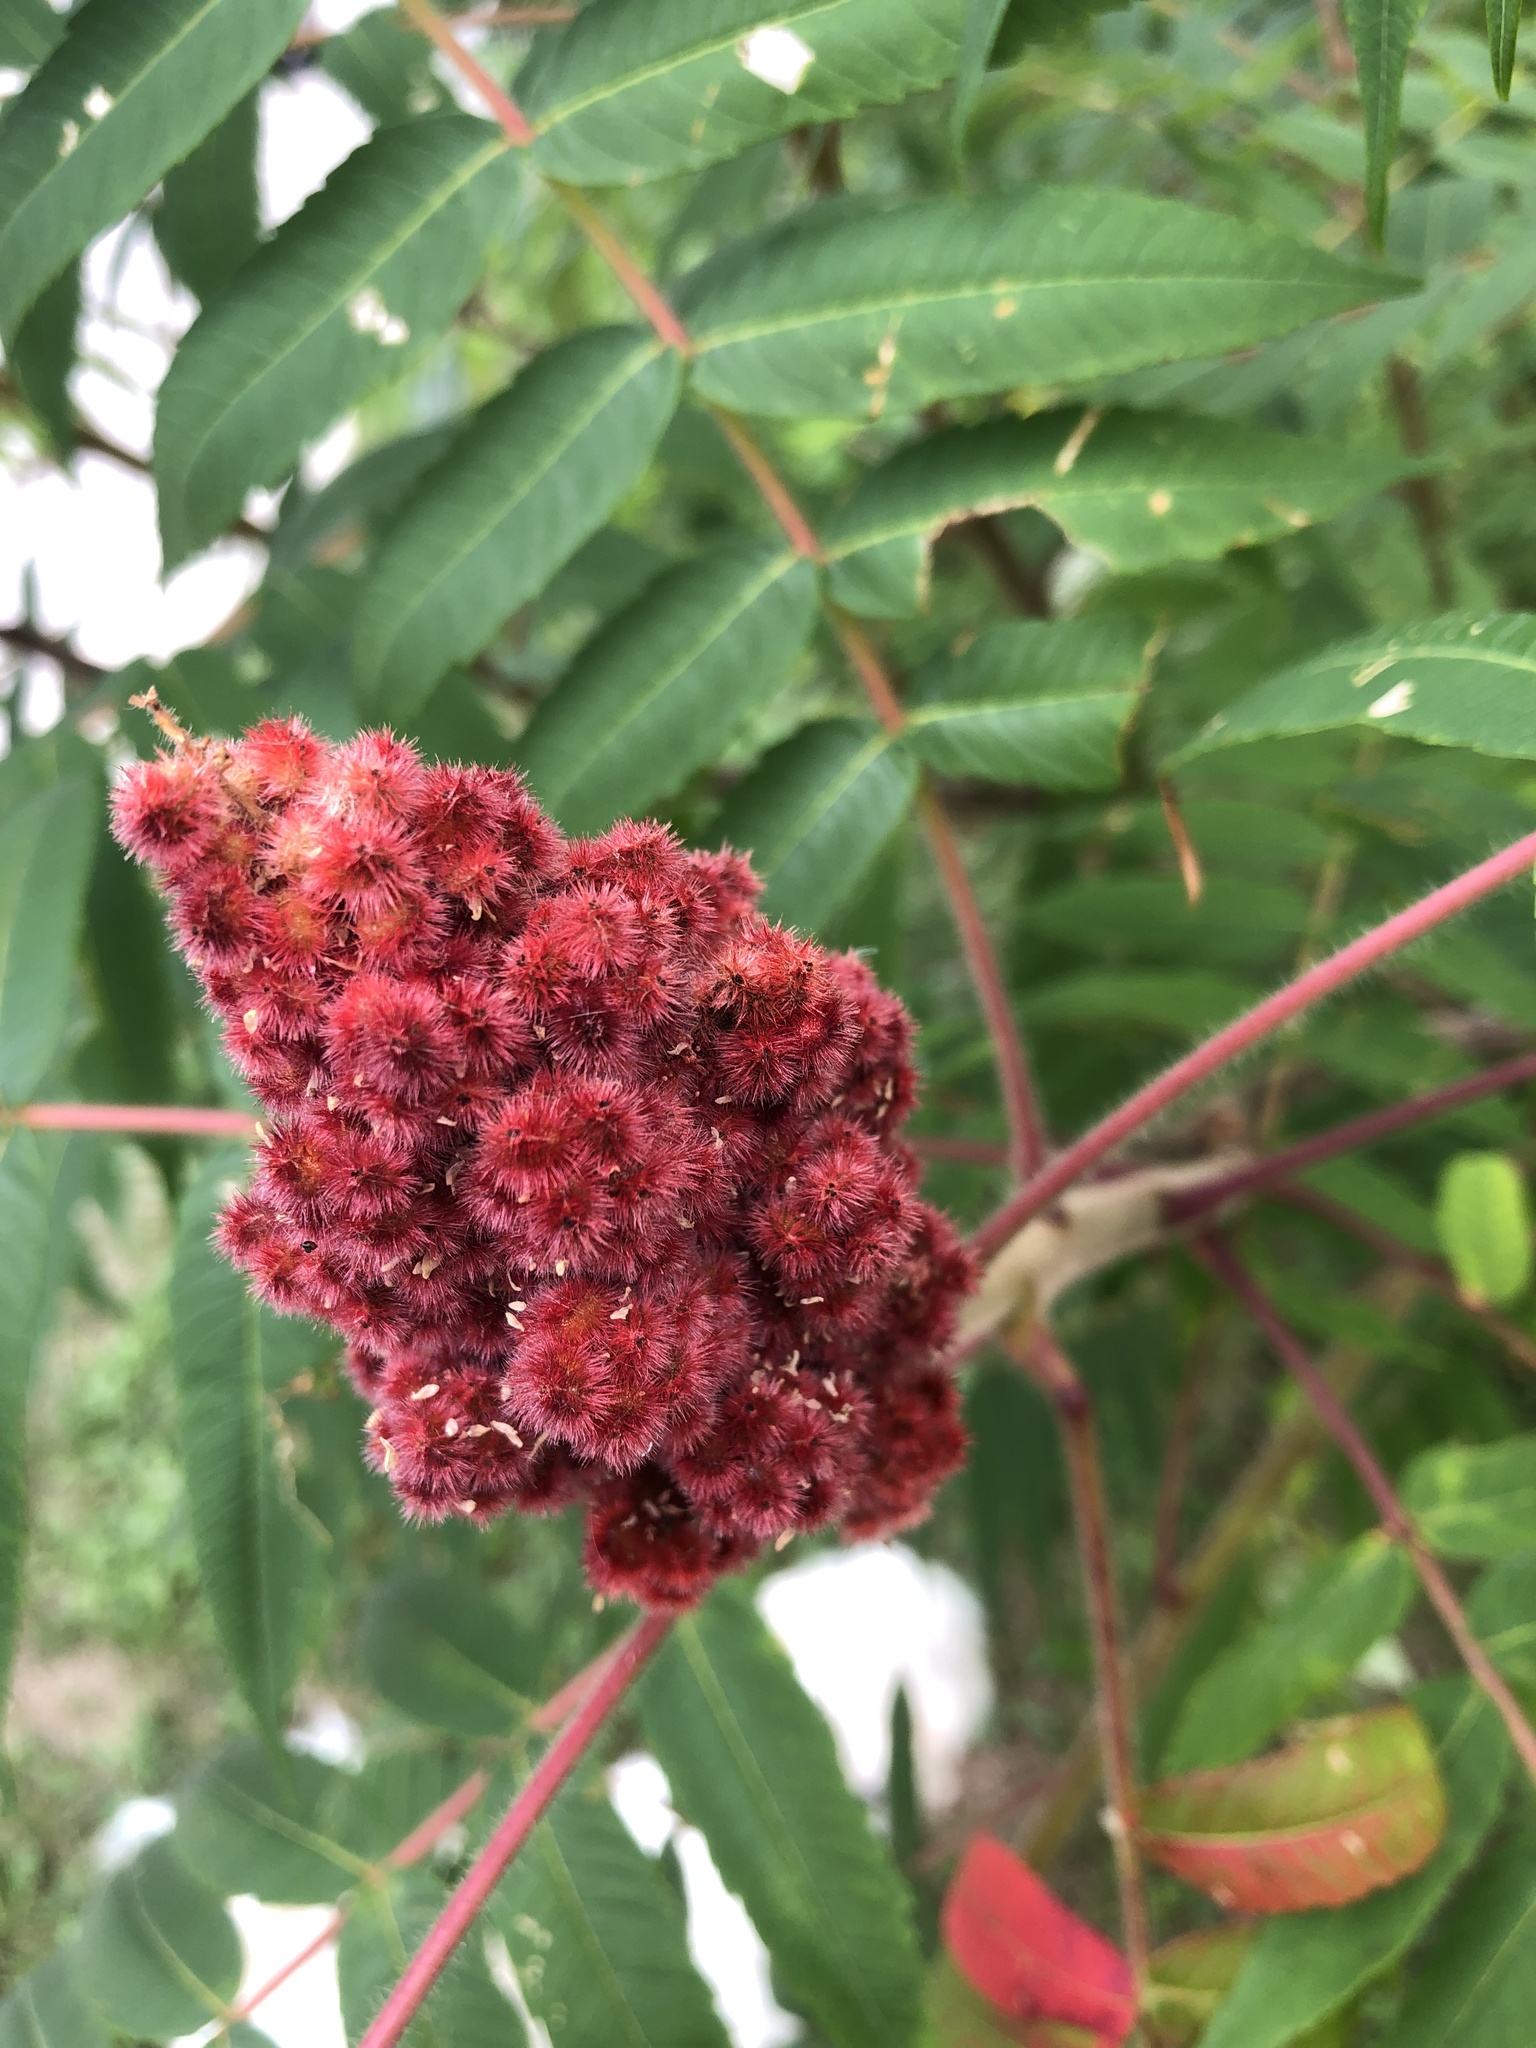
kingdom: Plantae
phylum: Tracheophyta
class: Magnoliopsida
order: Sapindales
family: Anacardiaceae
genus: Rhus
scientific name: Rhus typhina
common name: Staghorn sumac
